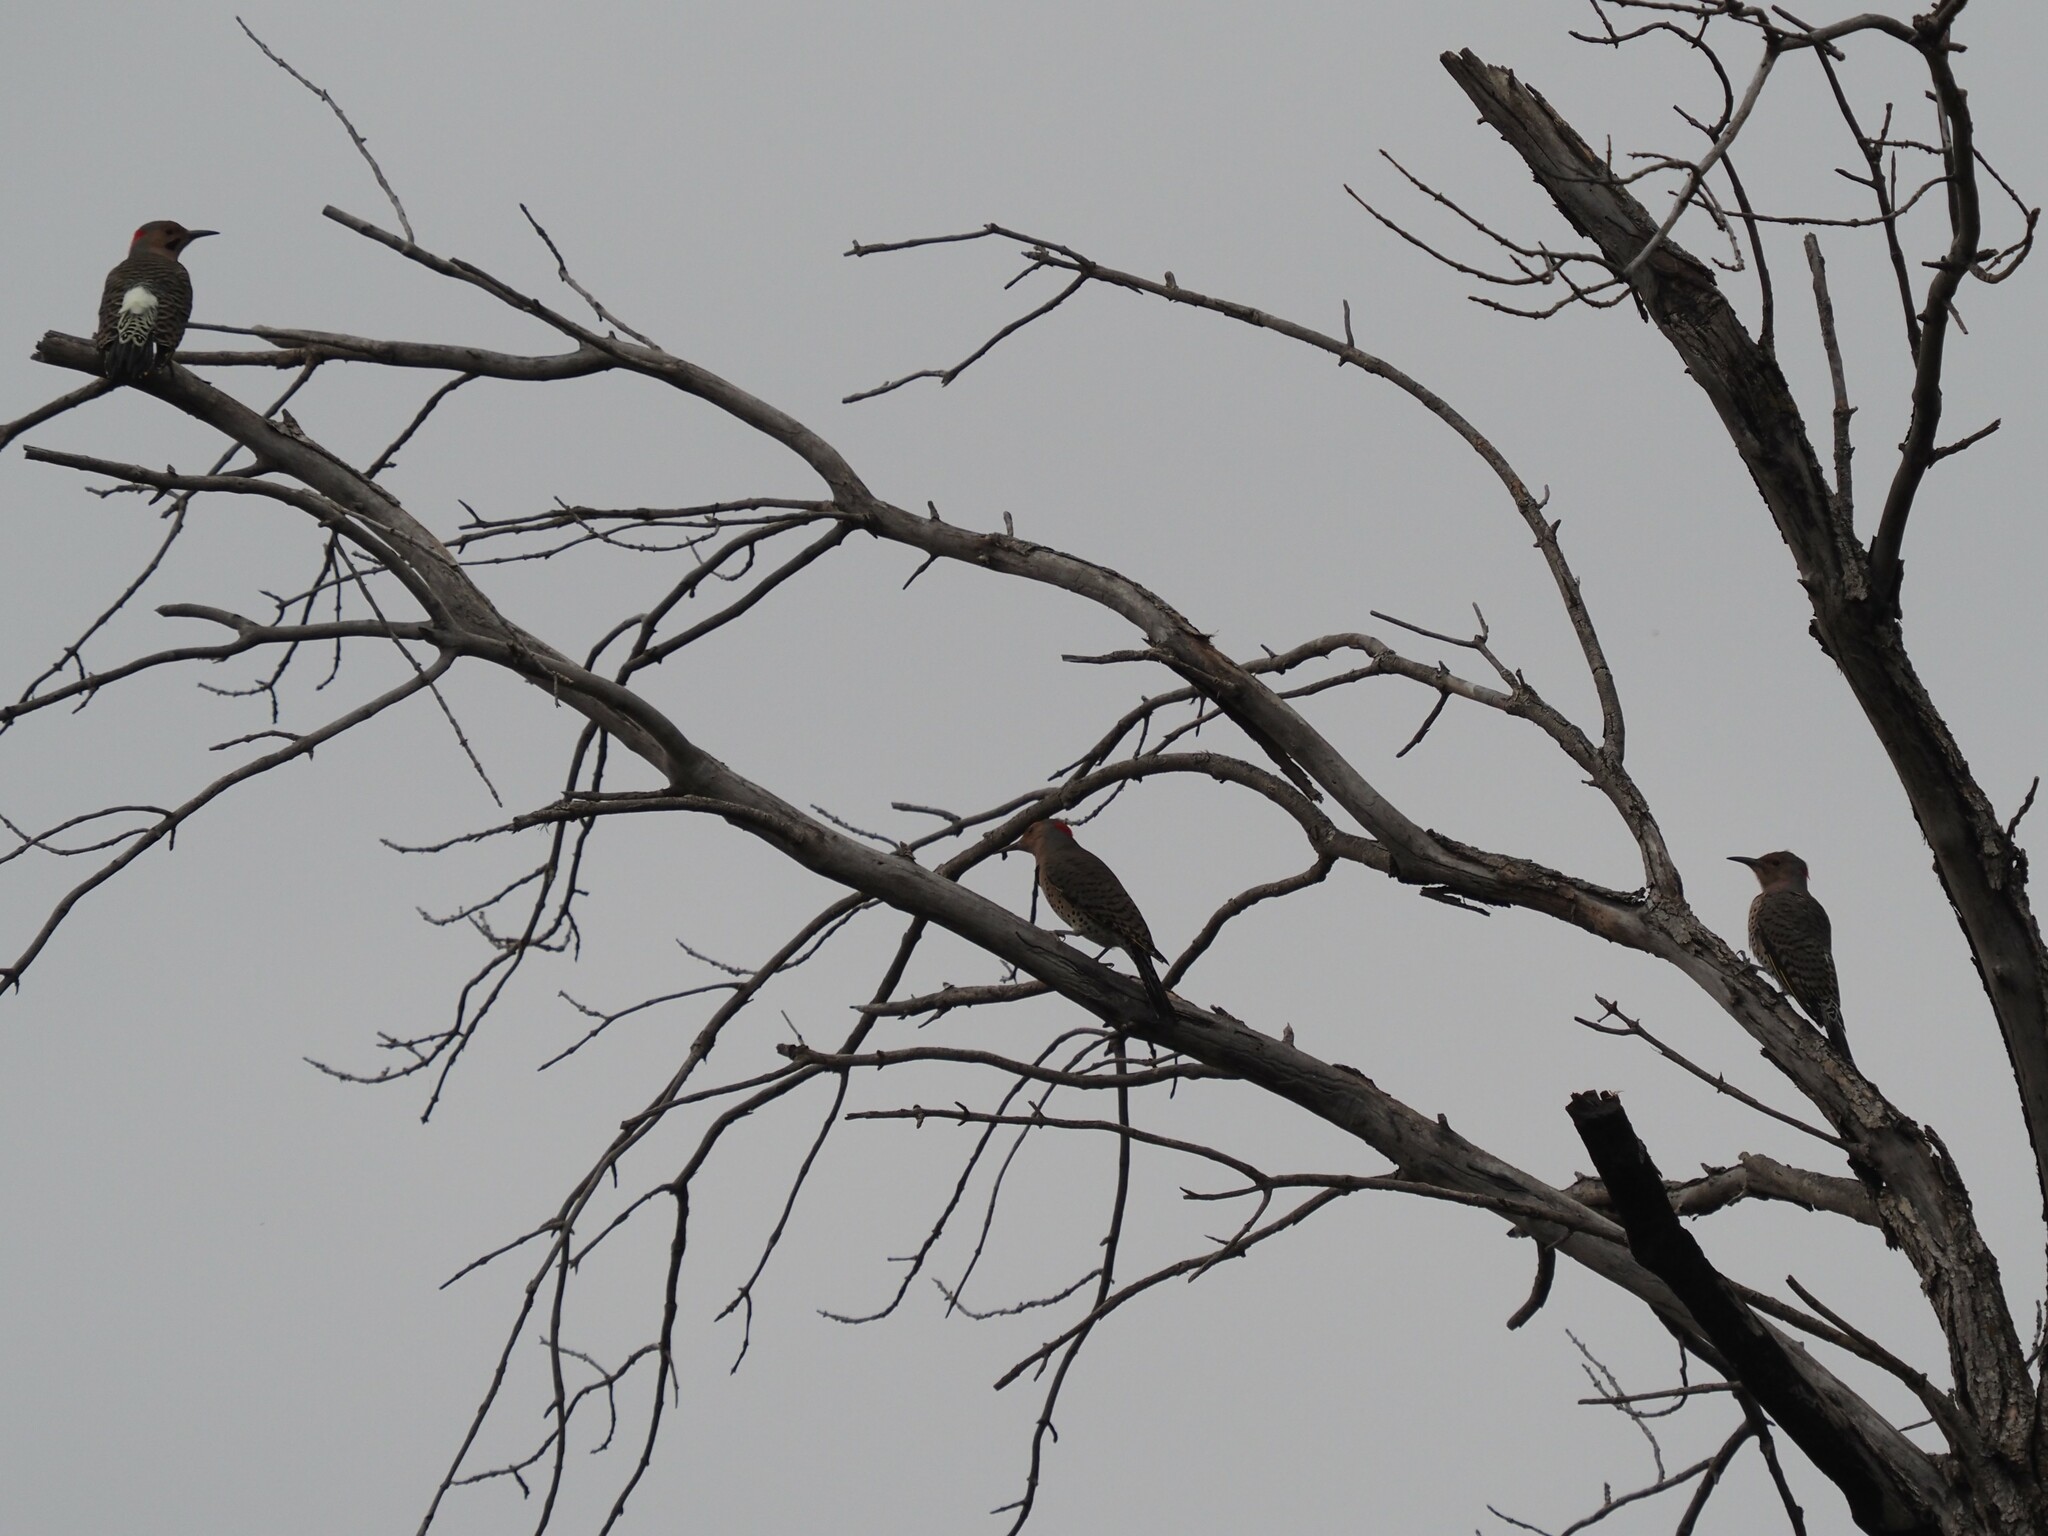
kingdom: Animalia
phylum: Chordata
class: Aves
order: Piciformes
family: Picidae
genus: Colaptes
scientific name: Colaptes auratus
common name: Northern flicker
